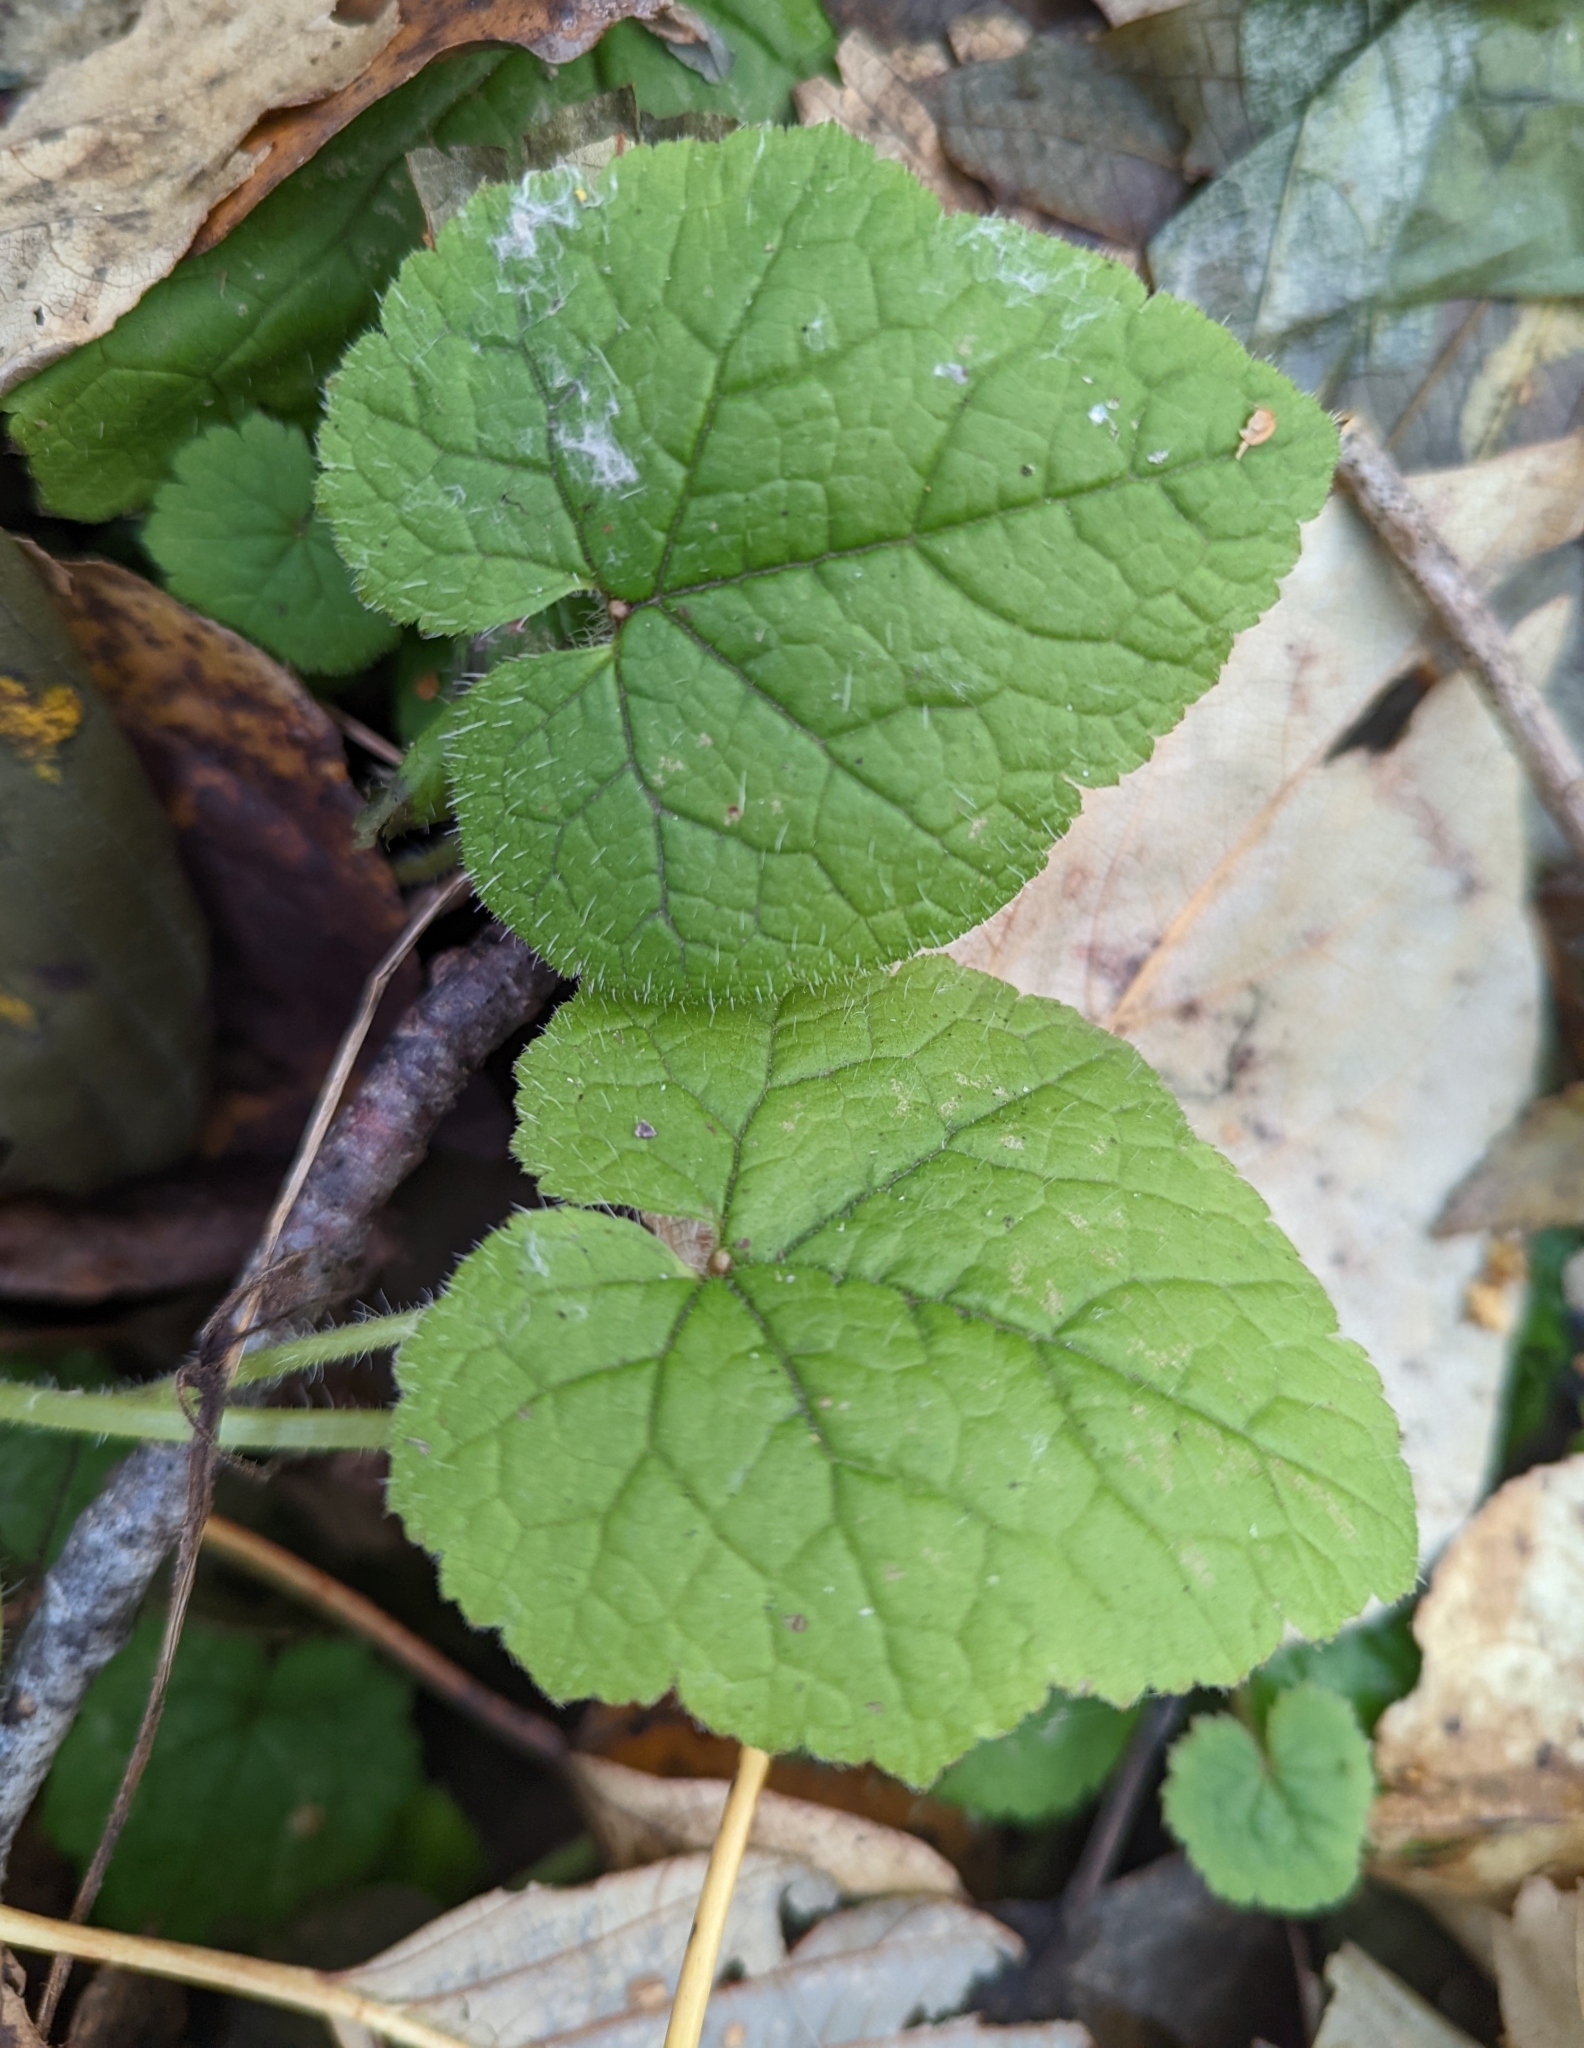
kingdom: Plantae
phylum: Tracheophyta
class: Magnoliopsida
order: Saxifragales
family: Saxifragaceae
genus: Tolmiea
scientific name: Tolmiea menziesii
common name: Pick-a-back-plant
